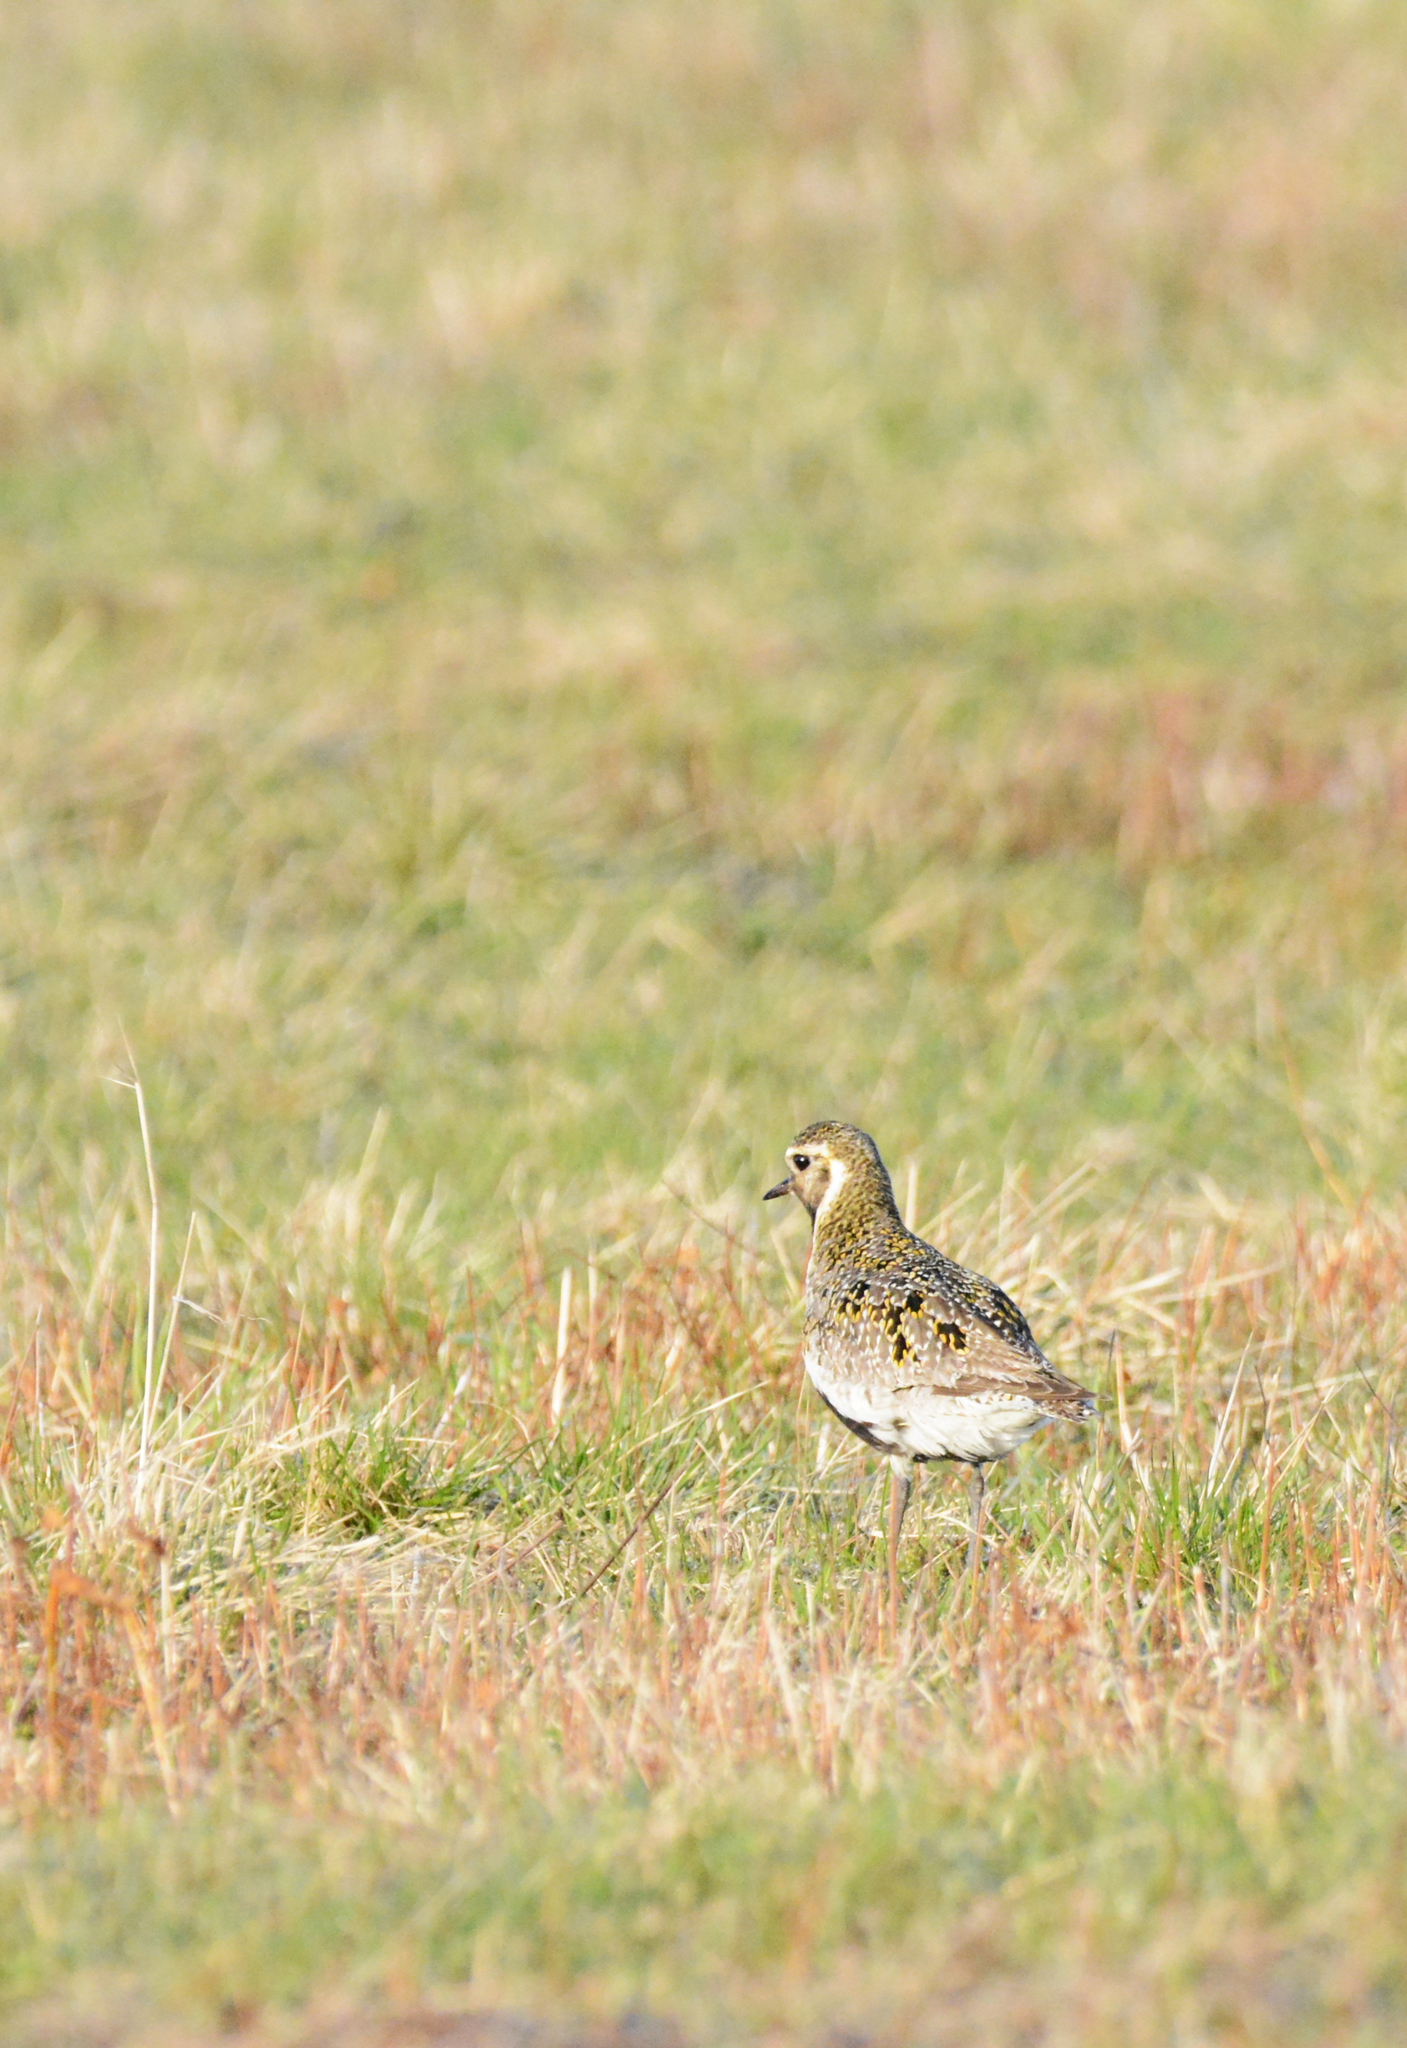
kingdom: Animalia
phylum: Chordata
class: Aves
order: Charadriiformes
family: Charadriidae
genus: Pluvialis
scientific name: Pluvialis apricaria
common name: European golden plover
